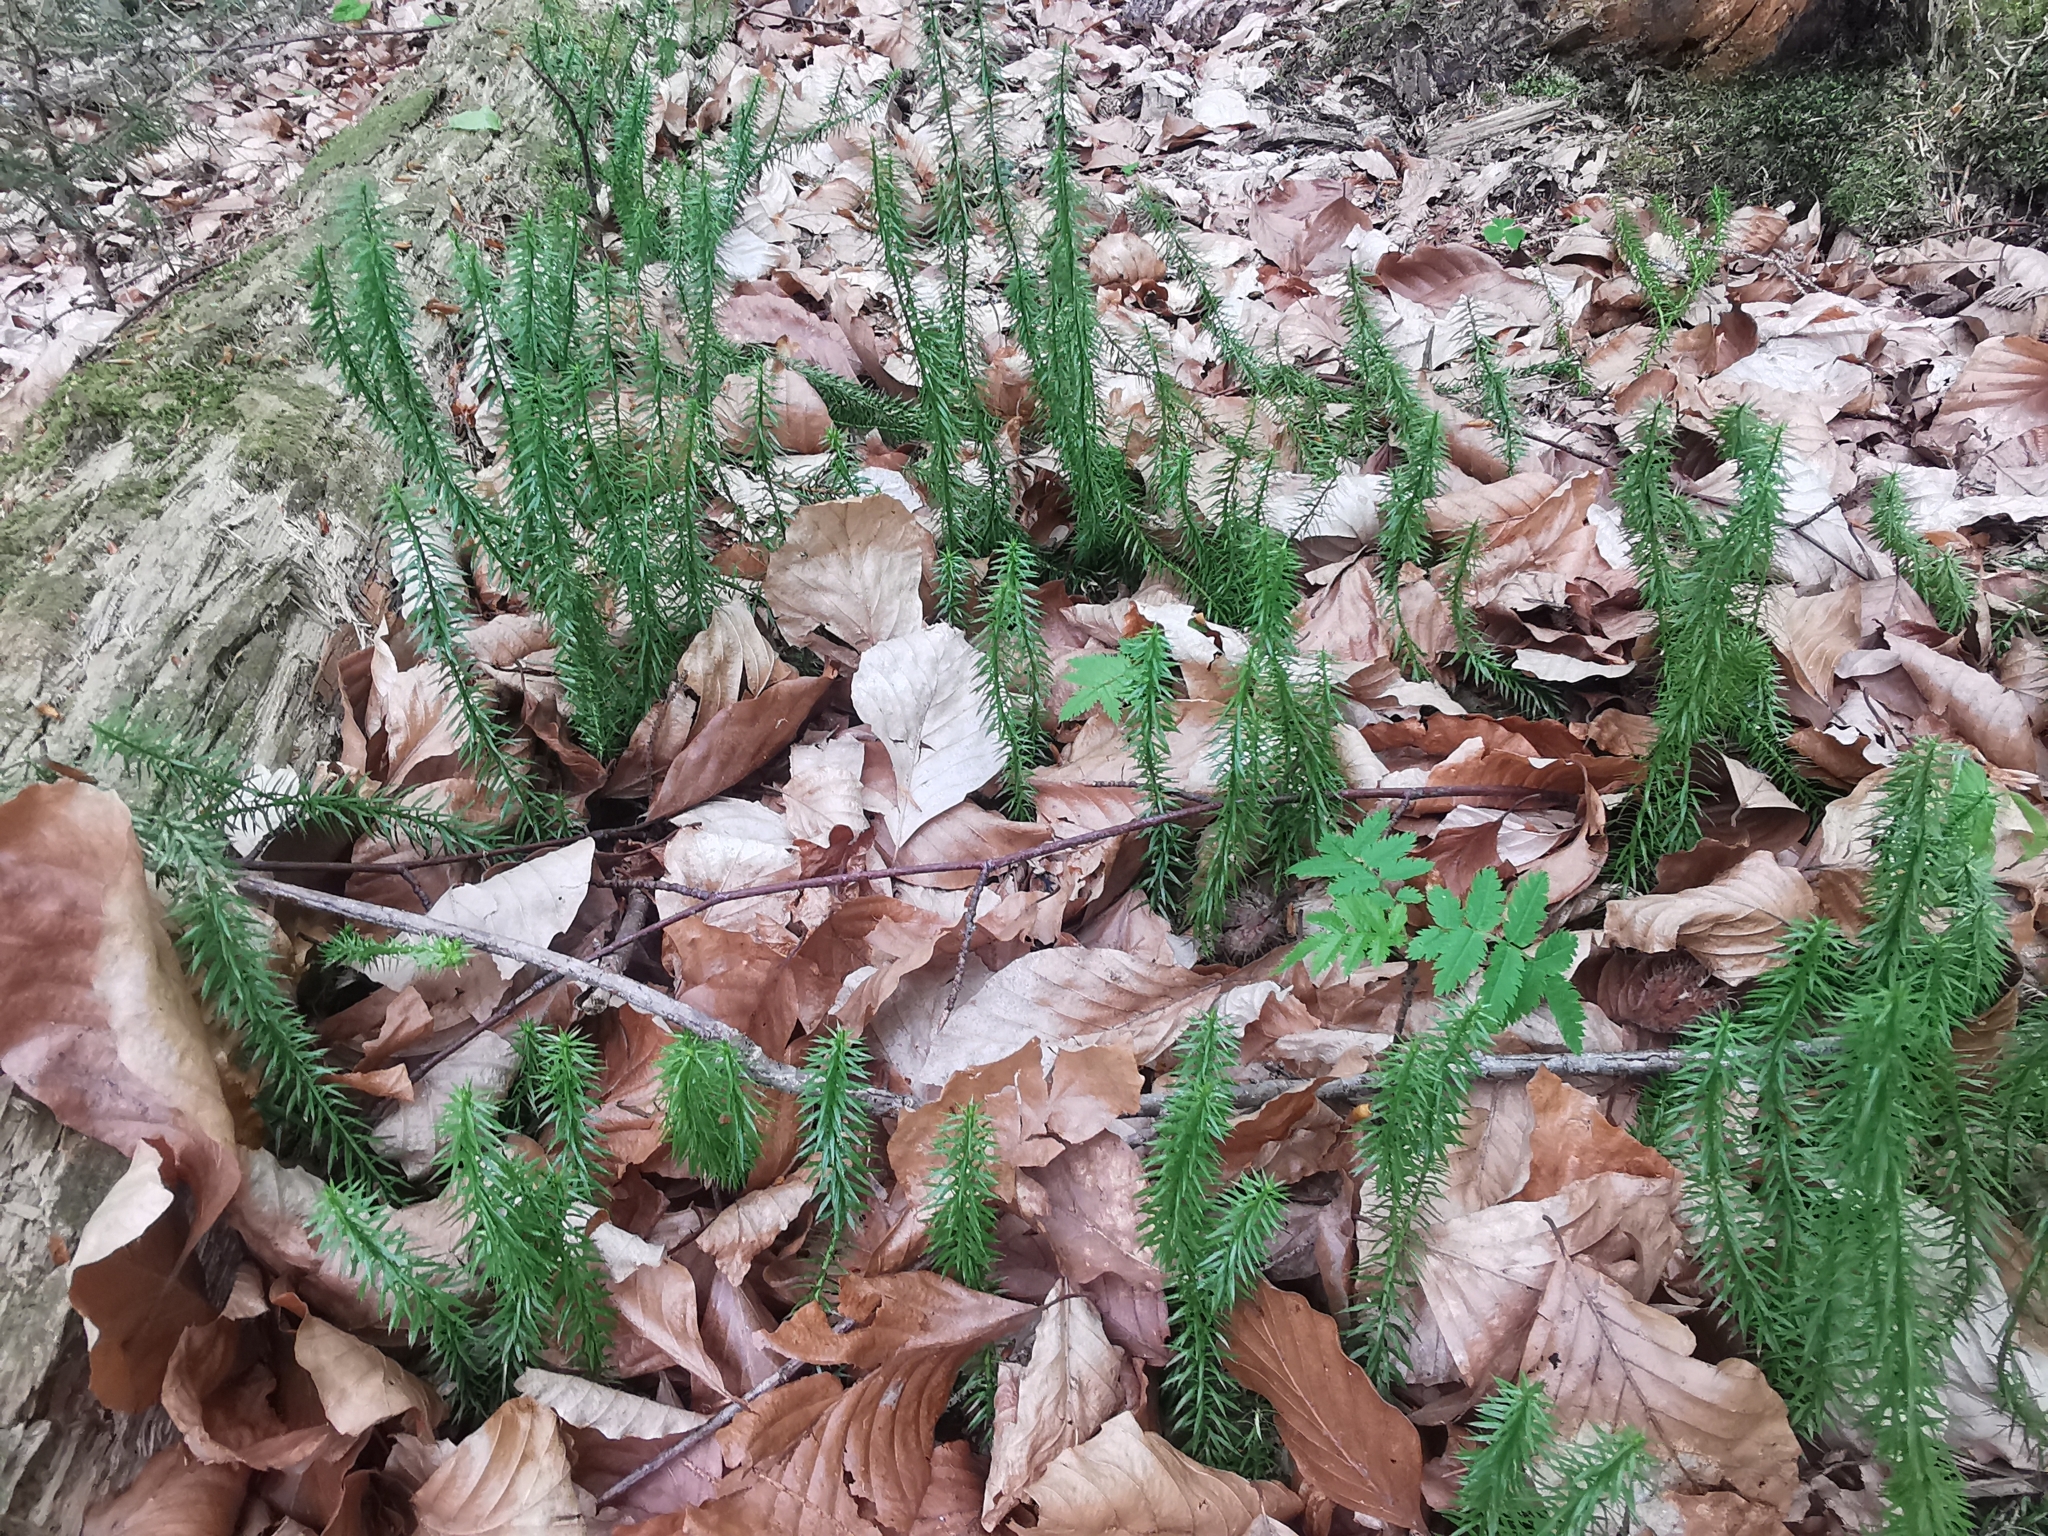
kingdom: Plantae
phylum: Tracheophyta
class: Lycopodiopsida
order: Lycopodiales
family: Lycopodiaceae
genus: Spinulum
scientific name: Spinulum annotinum
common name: Interrupted club-moss
